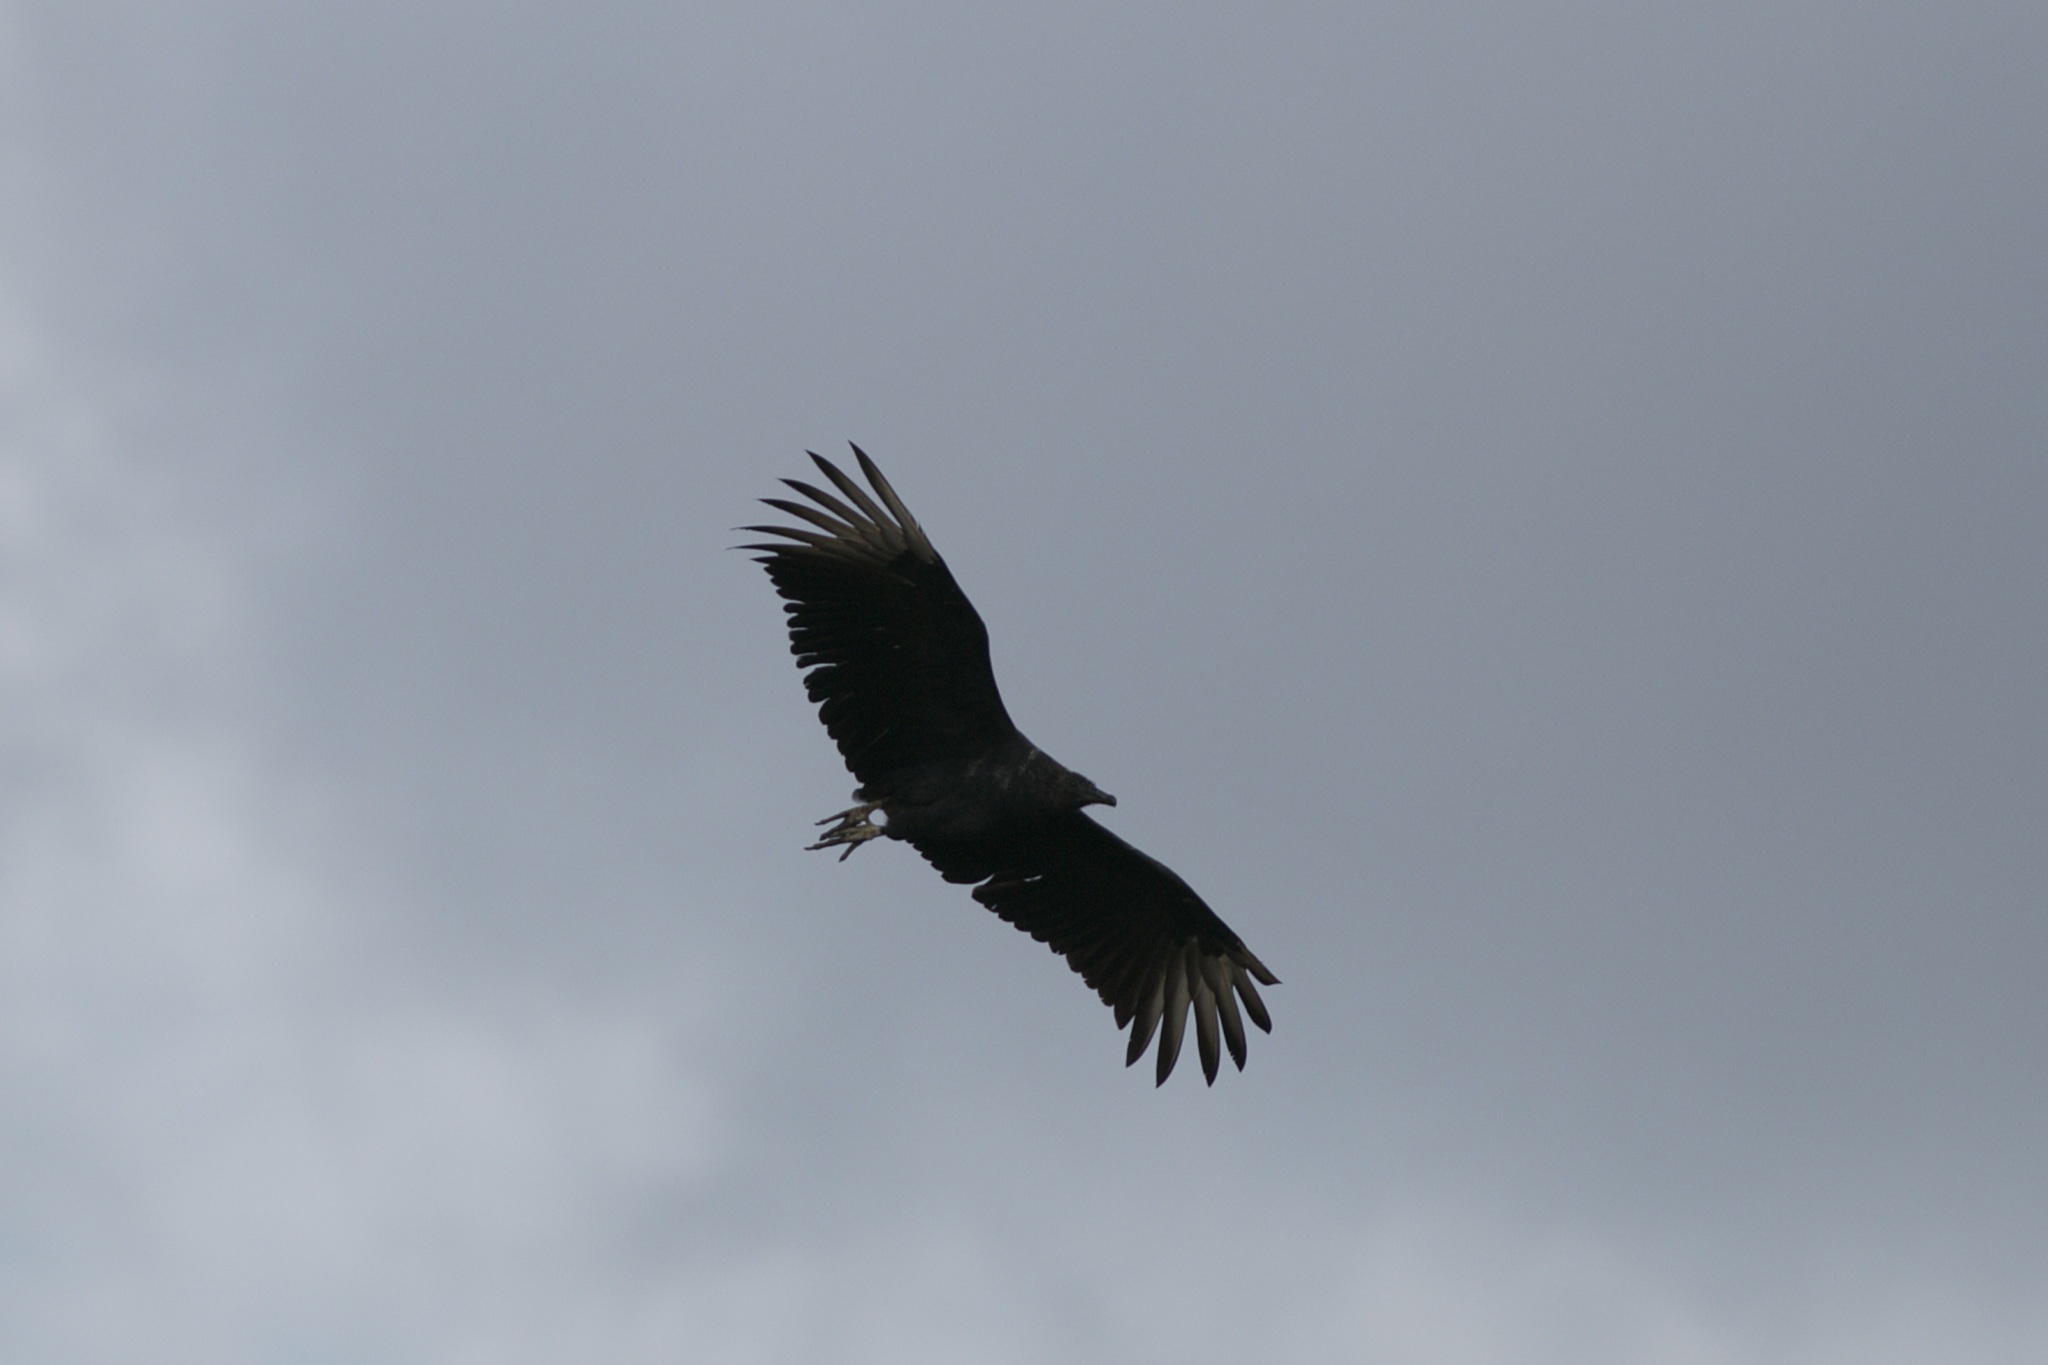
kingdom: Animalia
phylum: Chordata
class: Aves
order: Accipitriformes
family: Cathartidae
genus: Coragyps
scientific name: Coragyps atratus
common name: Black vulture
